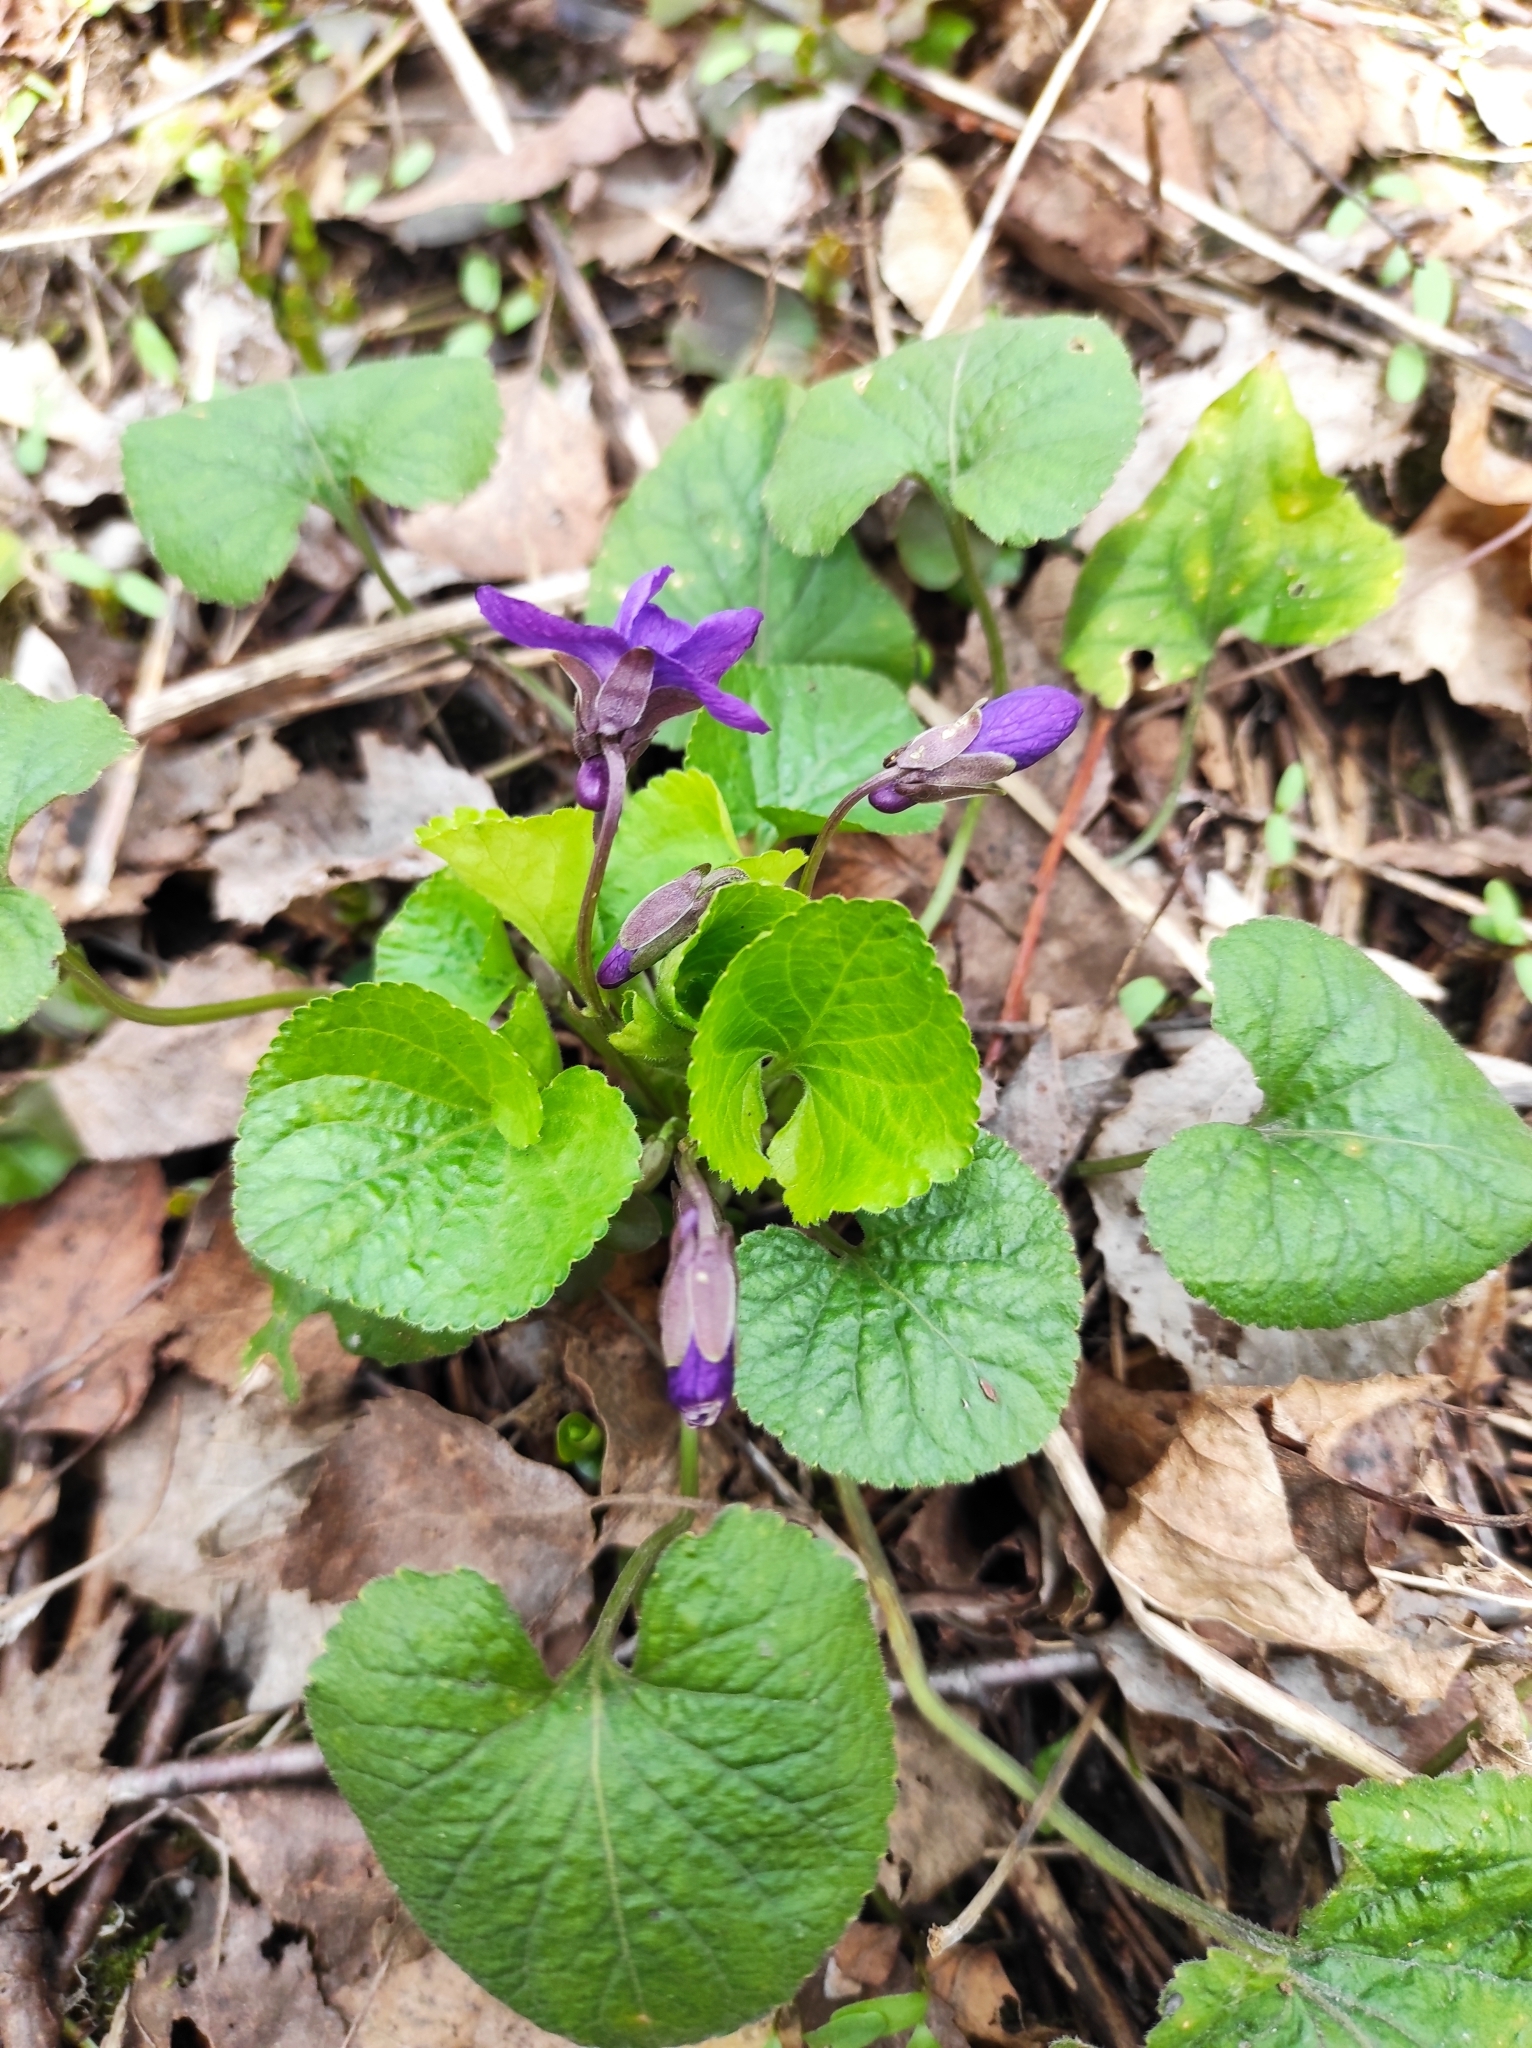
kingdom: Plantae
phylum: Tracheophyta
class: Magnoliopsida
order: Malpighiales
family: Violaceae
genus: Viola
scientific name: Viola odorata
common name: Sweet violet
